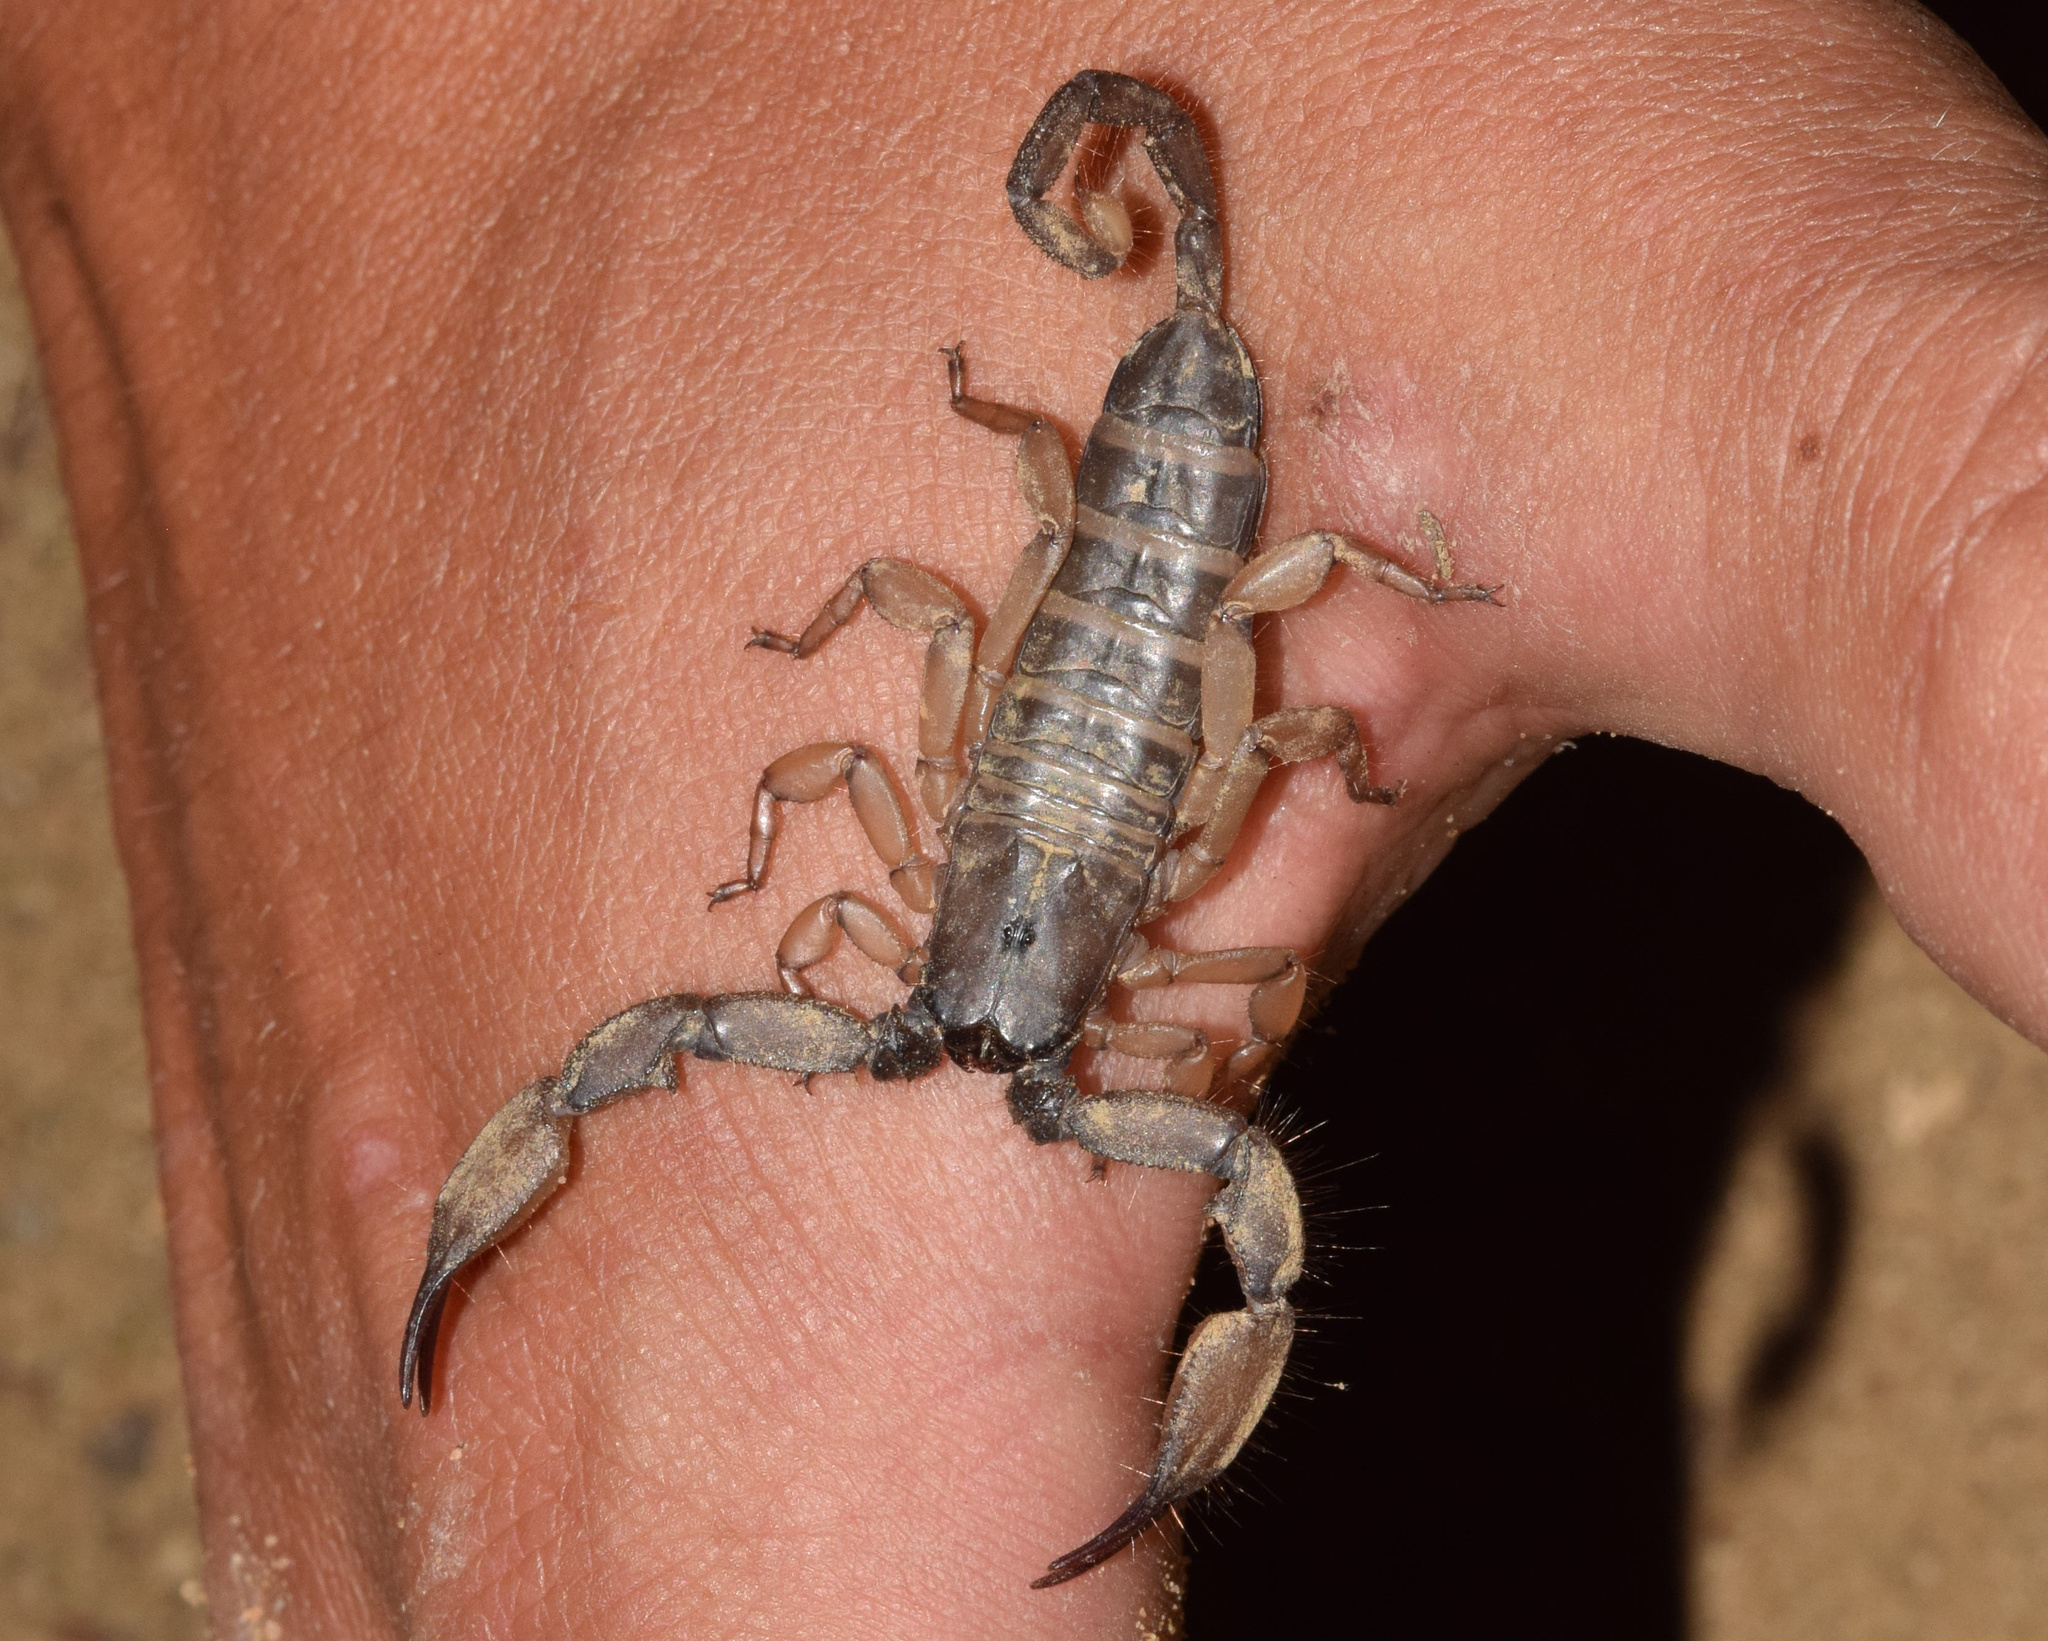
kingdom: Animalia
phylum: Arthropoda
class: Arachnida
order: Scorpiones
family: Hormuridae
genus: Hadogenes
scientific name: Hadogenes trichiurus
